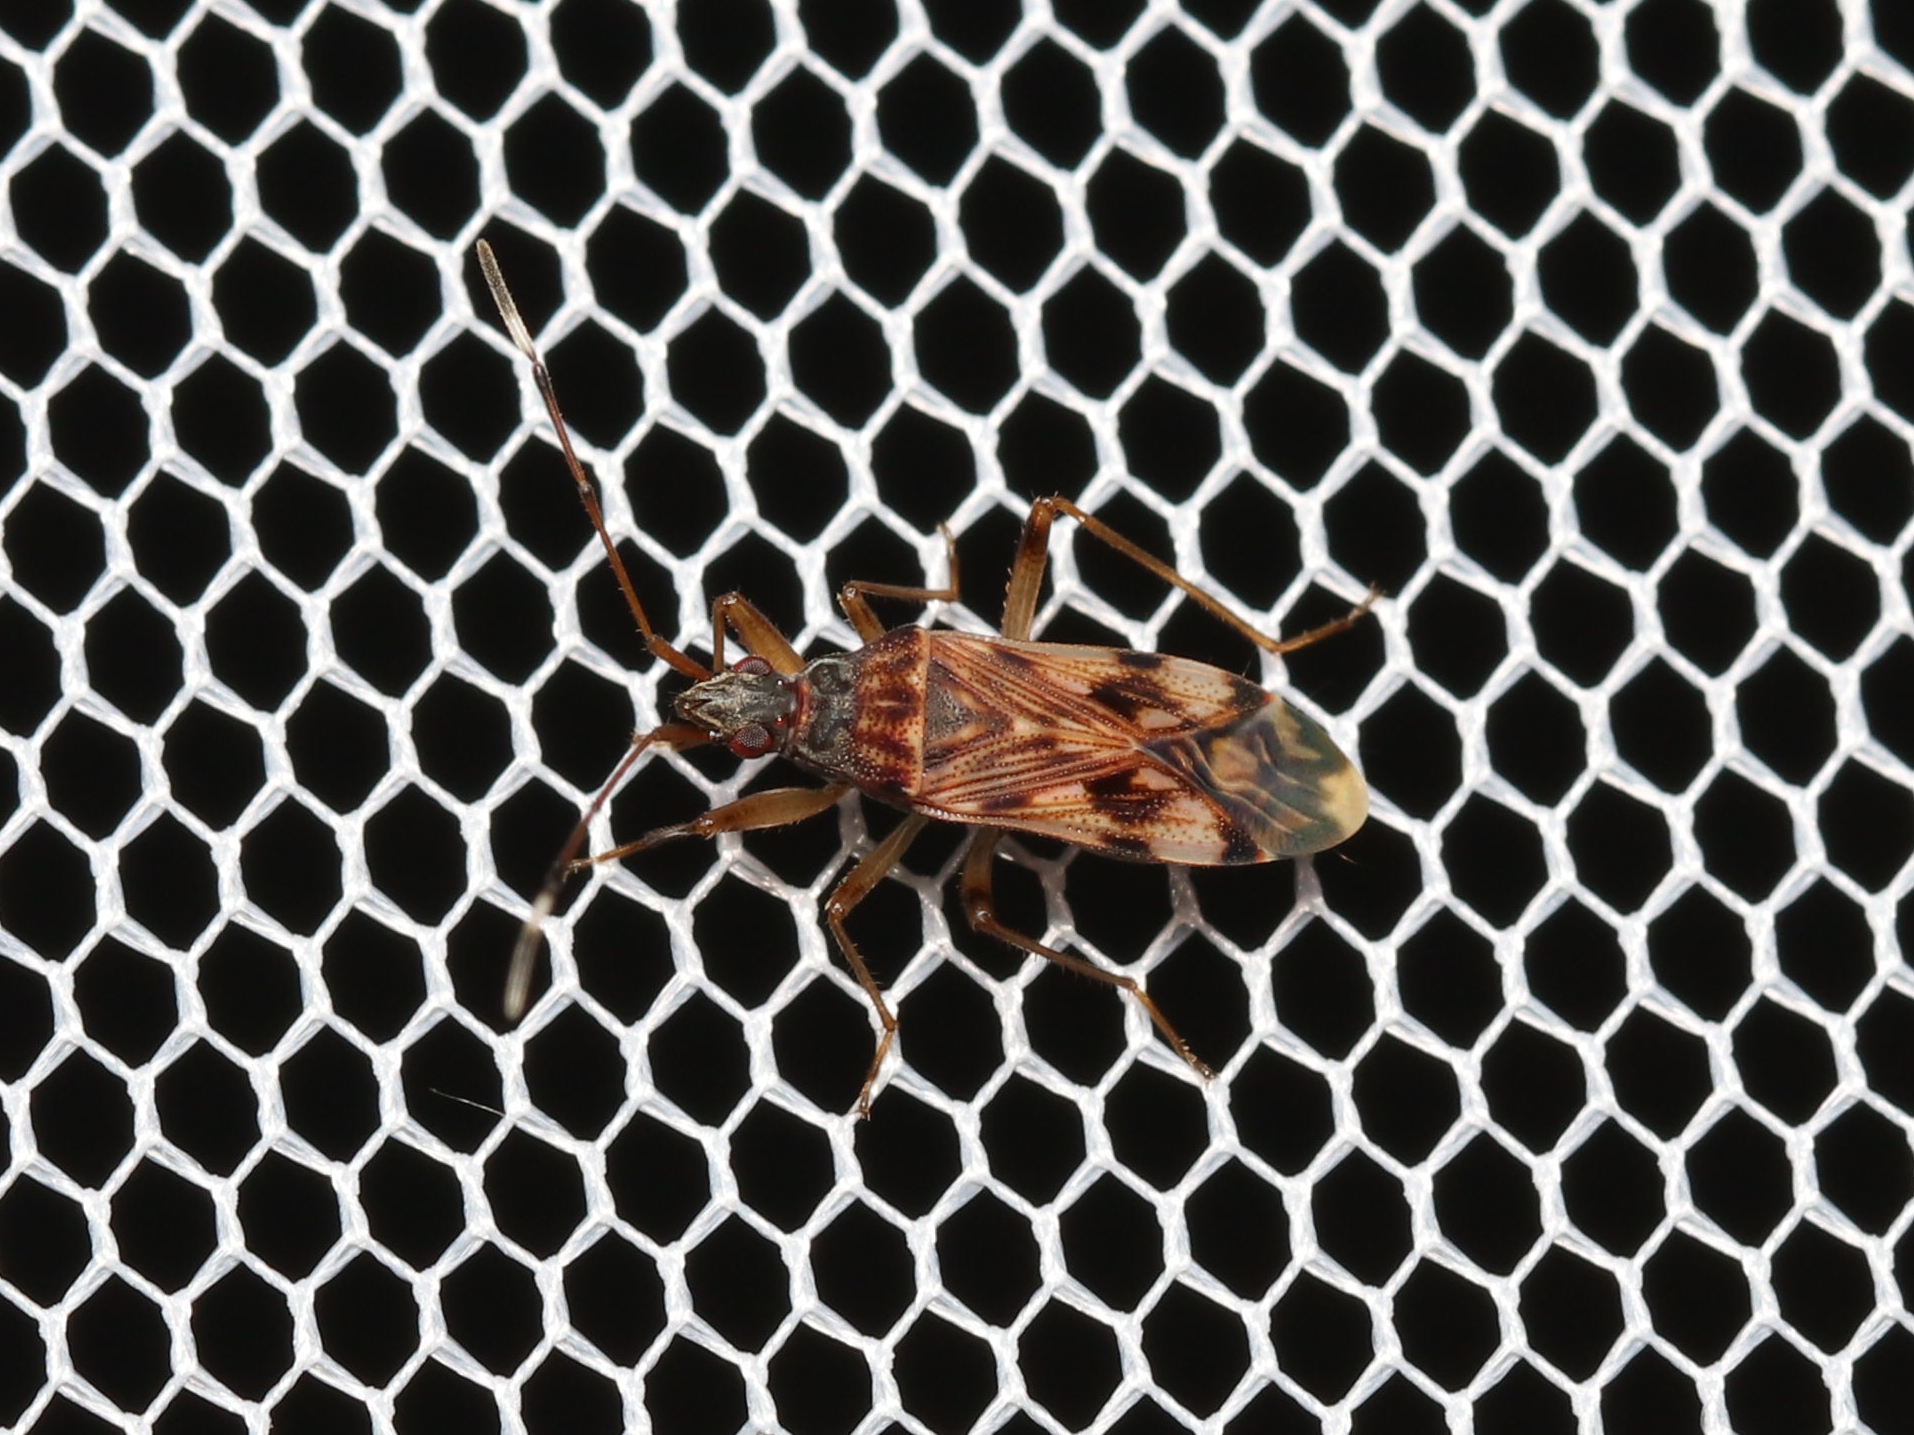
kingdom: Animalia
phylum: Arthropoda
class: Insecta
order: Hemiptera
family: Rhyparochromidae
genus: Ozophora
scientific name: Ozophora picturata
